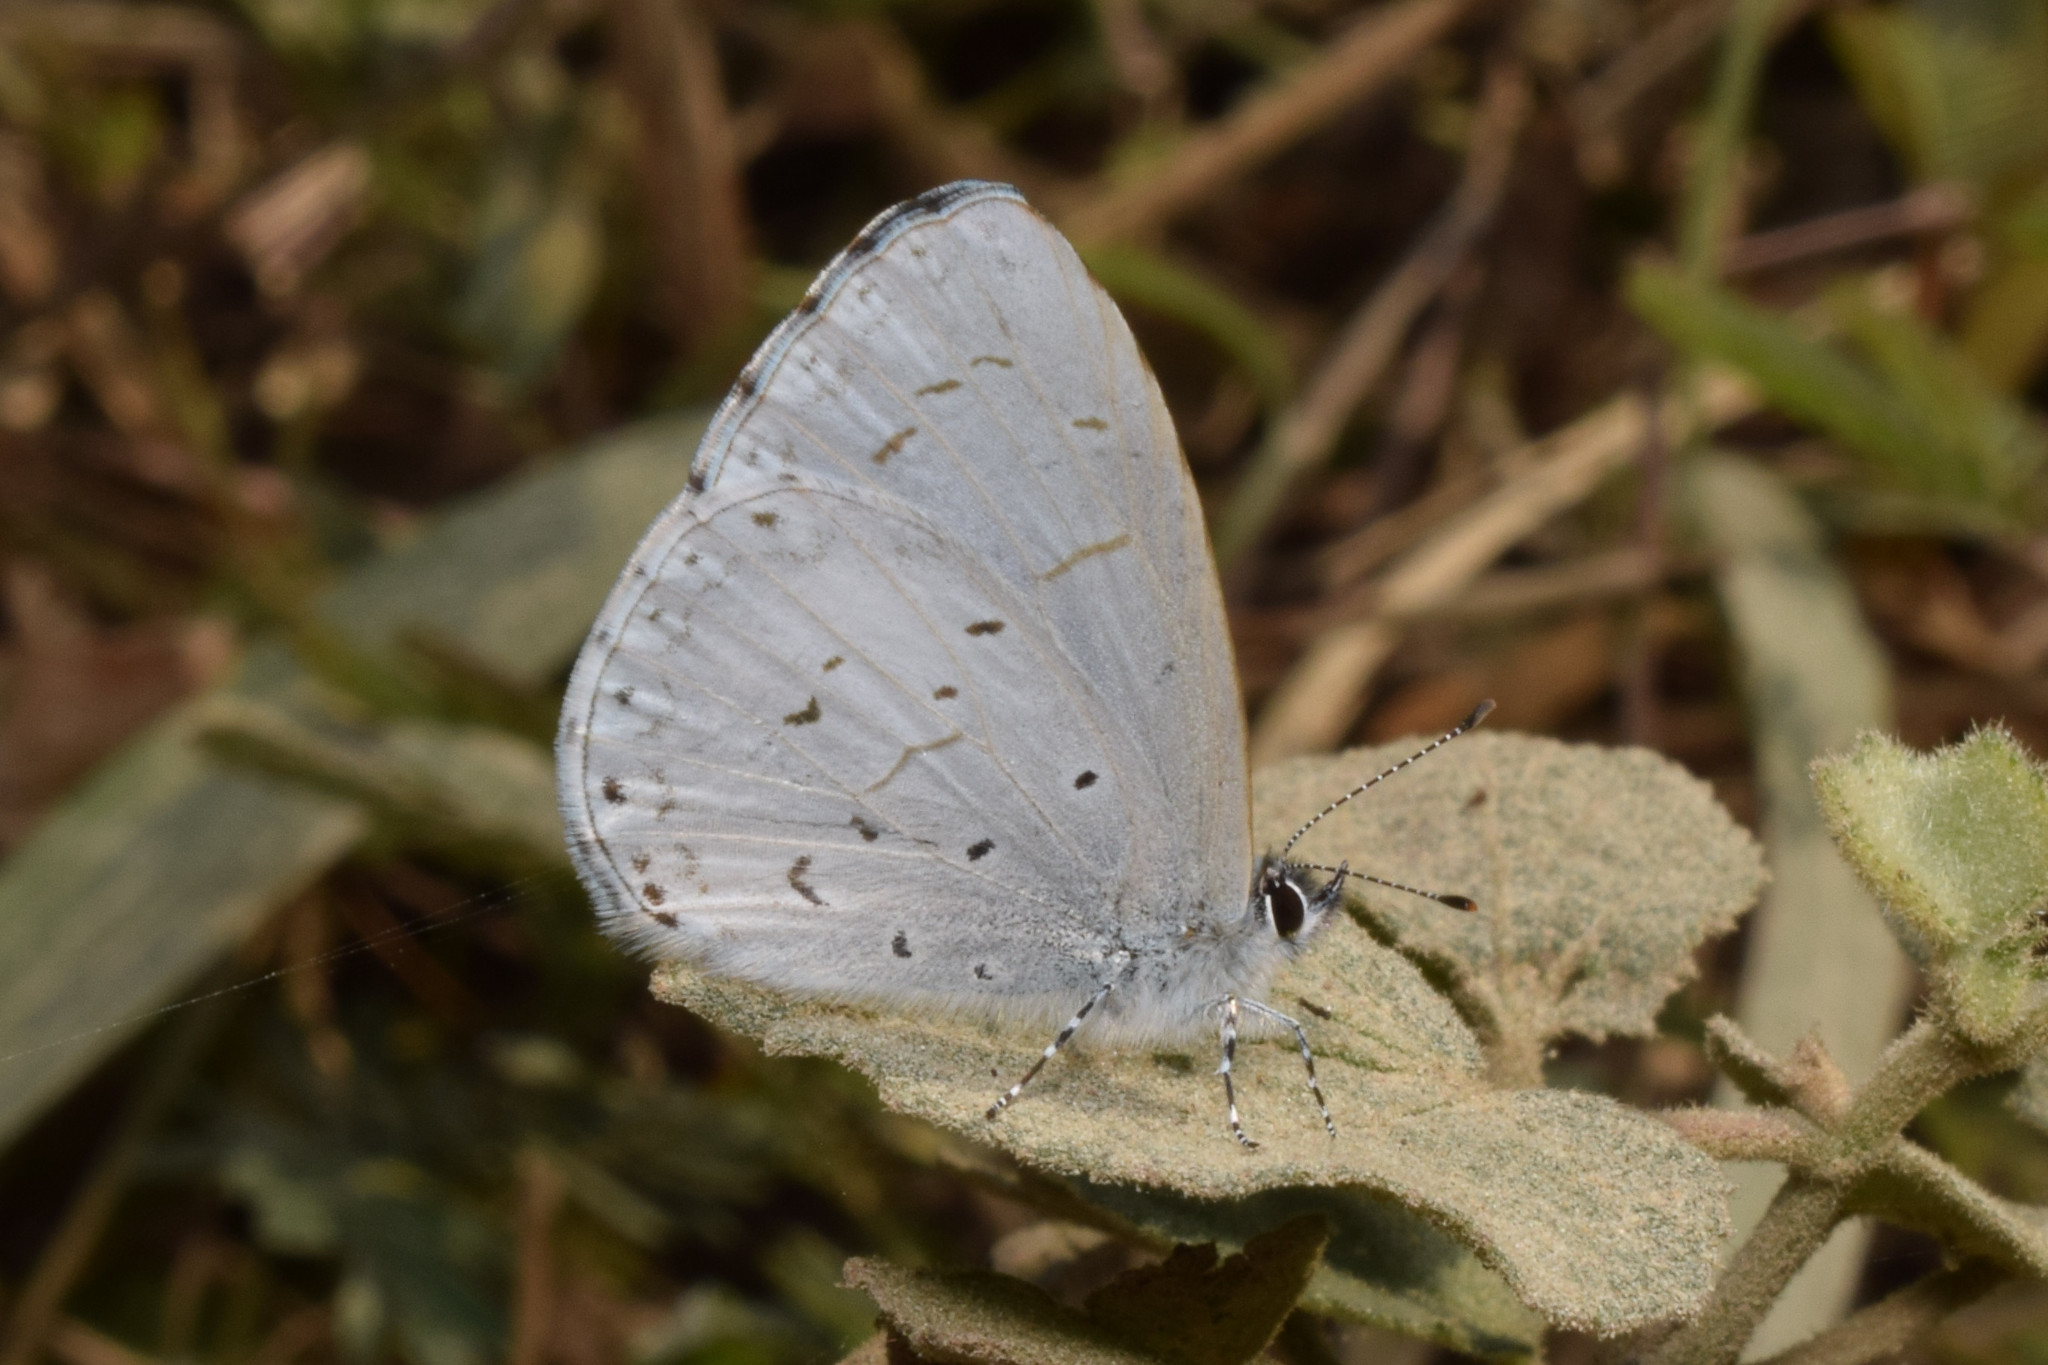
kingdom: Animalia
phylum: Arthropoda
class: Insecta
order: Lepidoptera
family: Lycaenidae
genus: Celastrina
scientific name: Celastrina lavendularis
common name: Plain hedge blue
